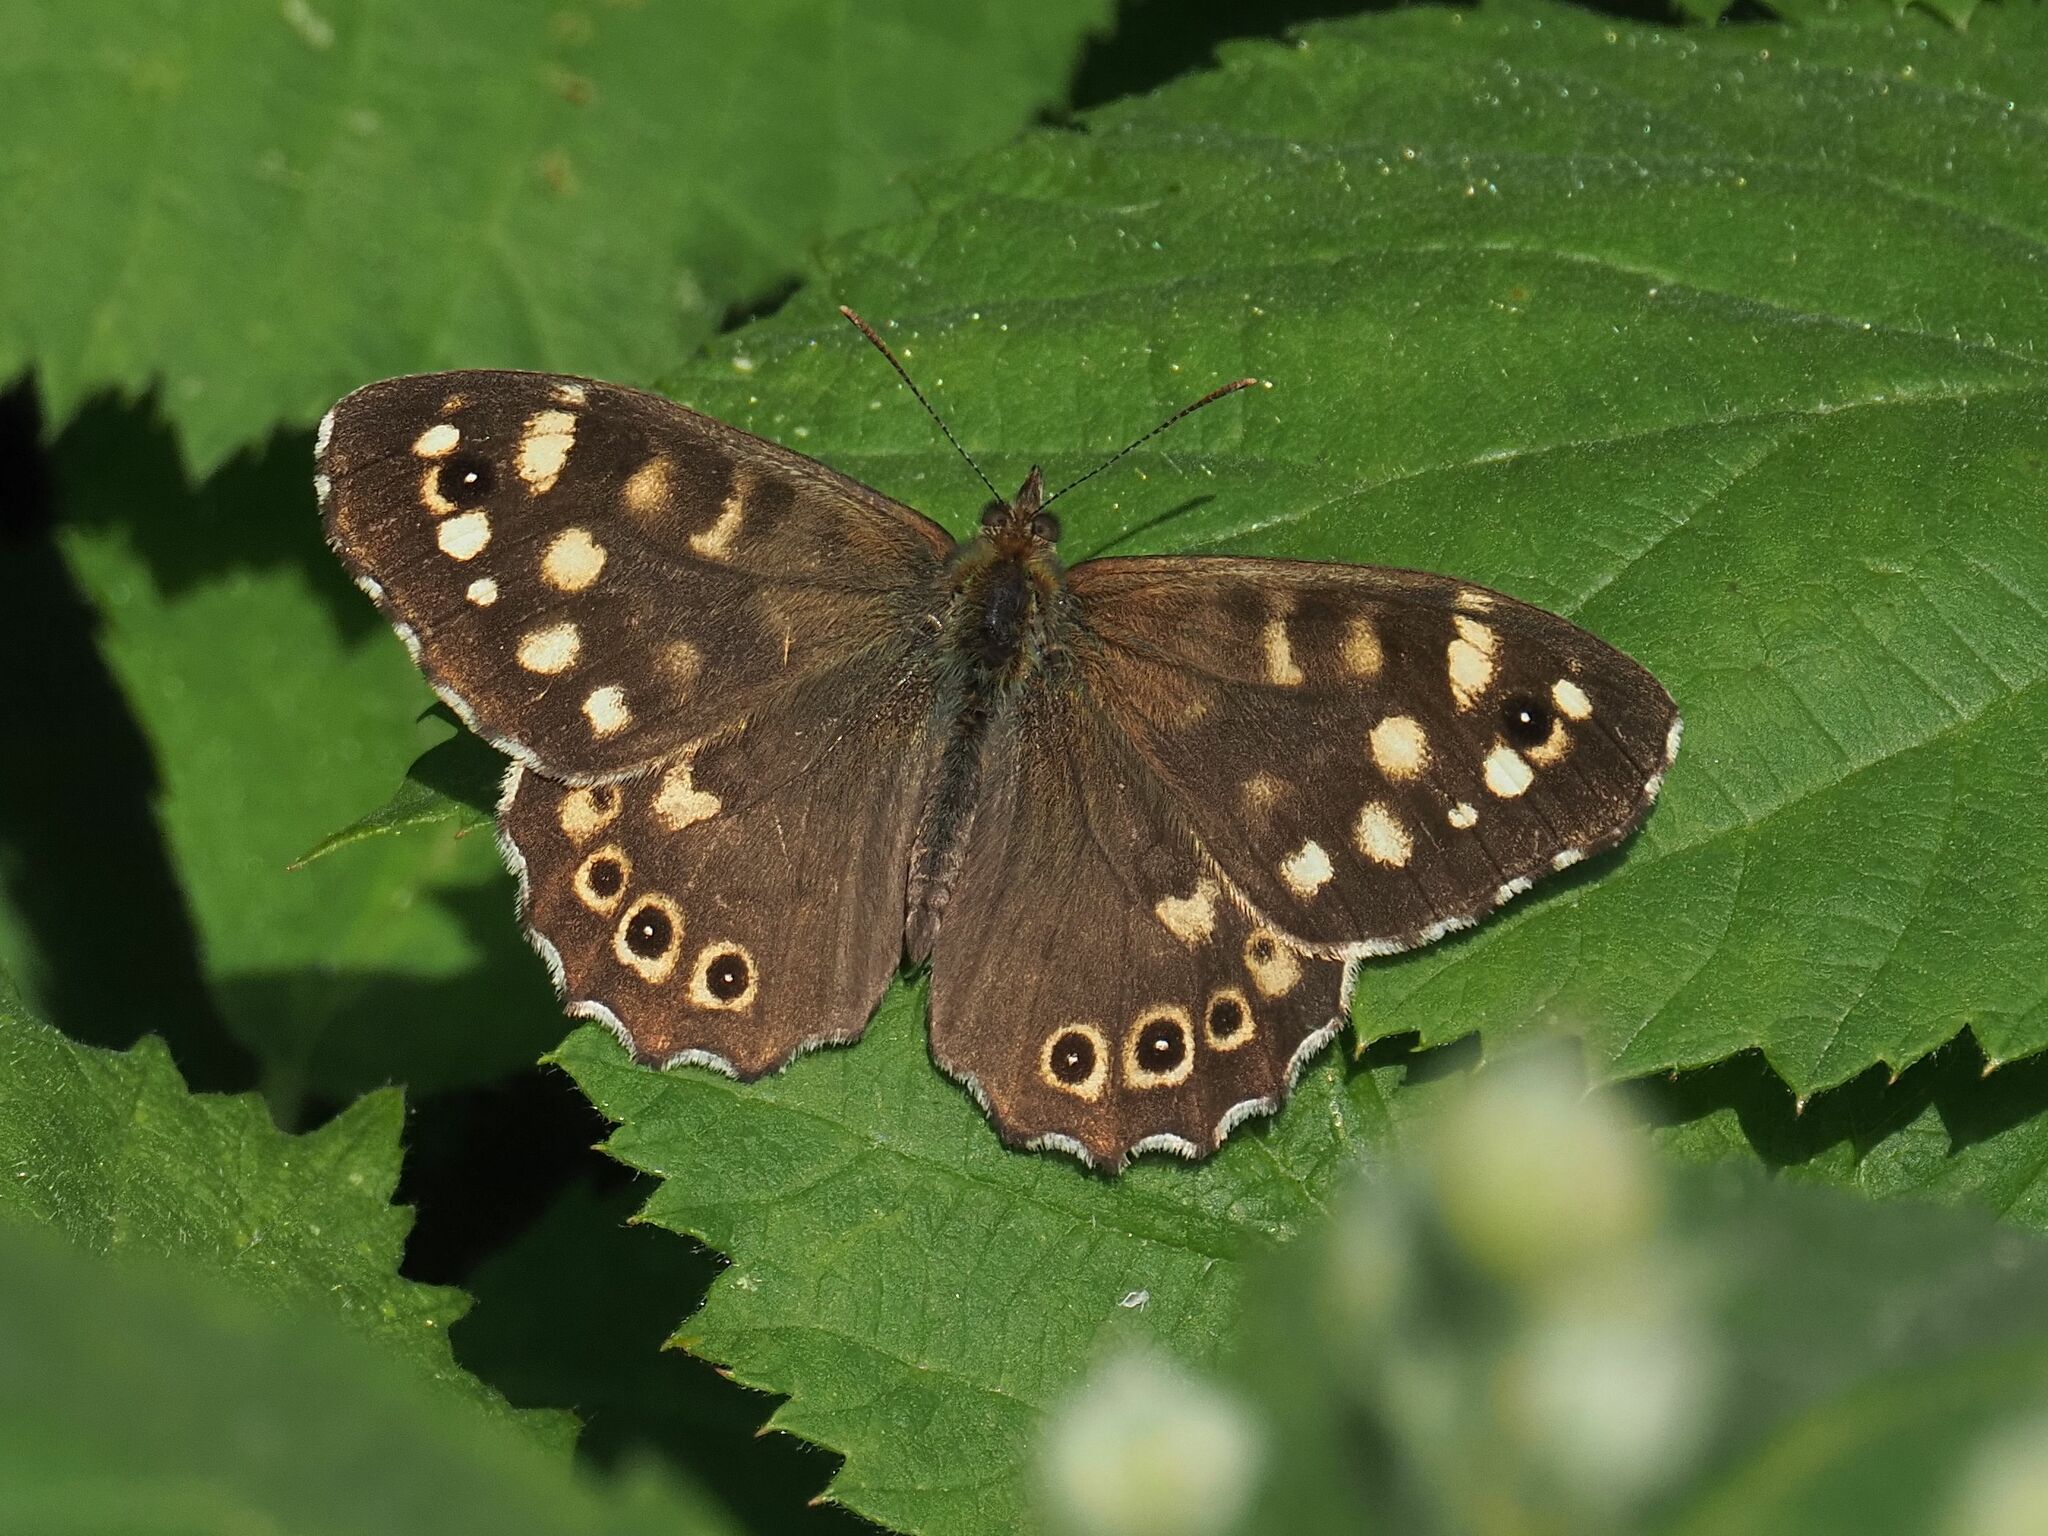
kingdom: Animalia
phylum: Arthropoda
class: Insecta
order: Lepidoptera
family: Nymphalidae
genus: Pararge
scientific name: Pararge aegeria
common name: Speckled wood
